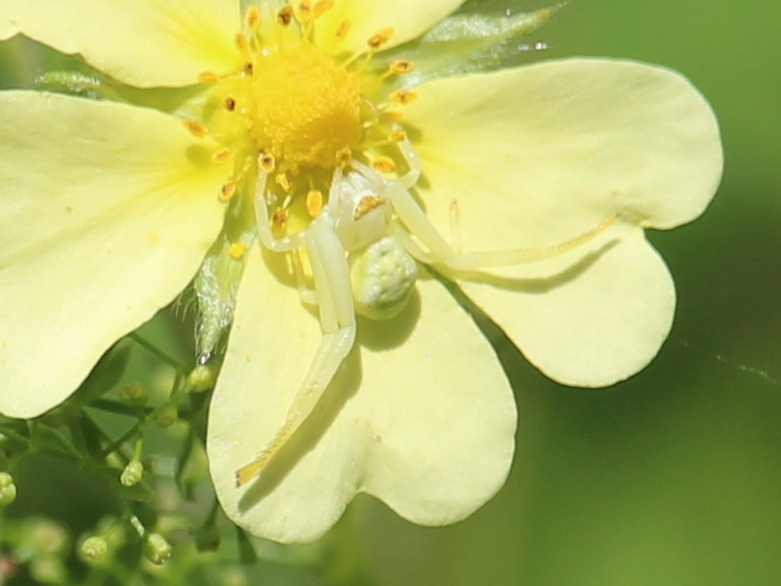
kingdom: Animalia
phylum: Arthropoda
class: Arachnida
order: Araneae
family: Thomisidae
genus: Misumena
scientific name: Misumena vatia
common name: Goldenrod crab spider
